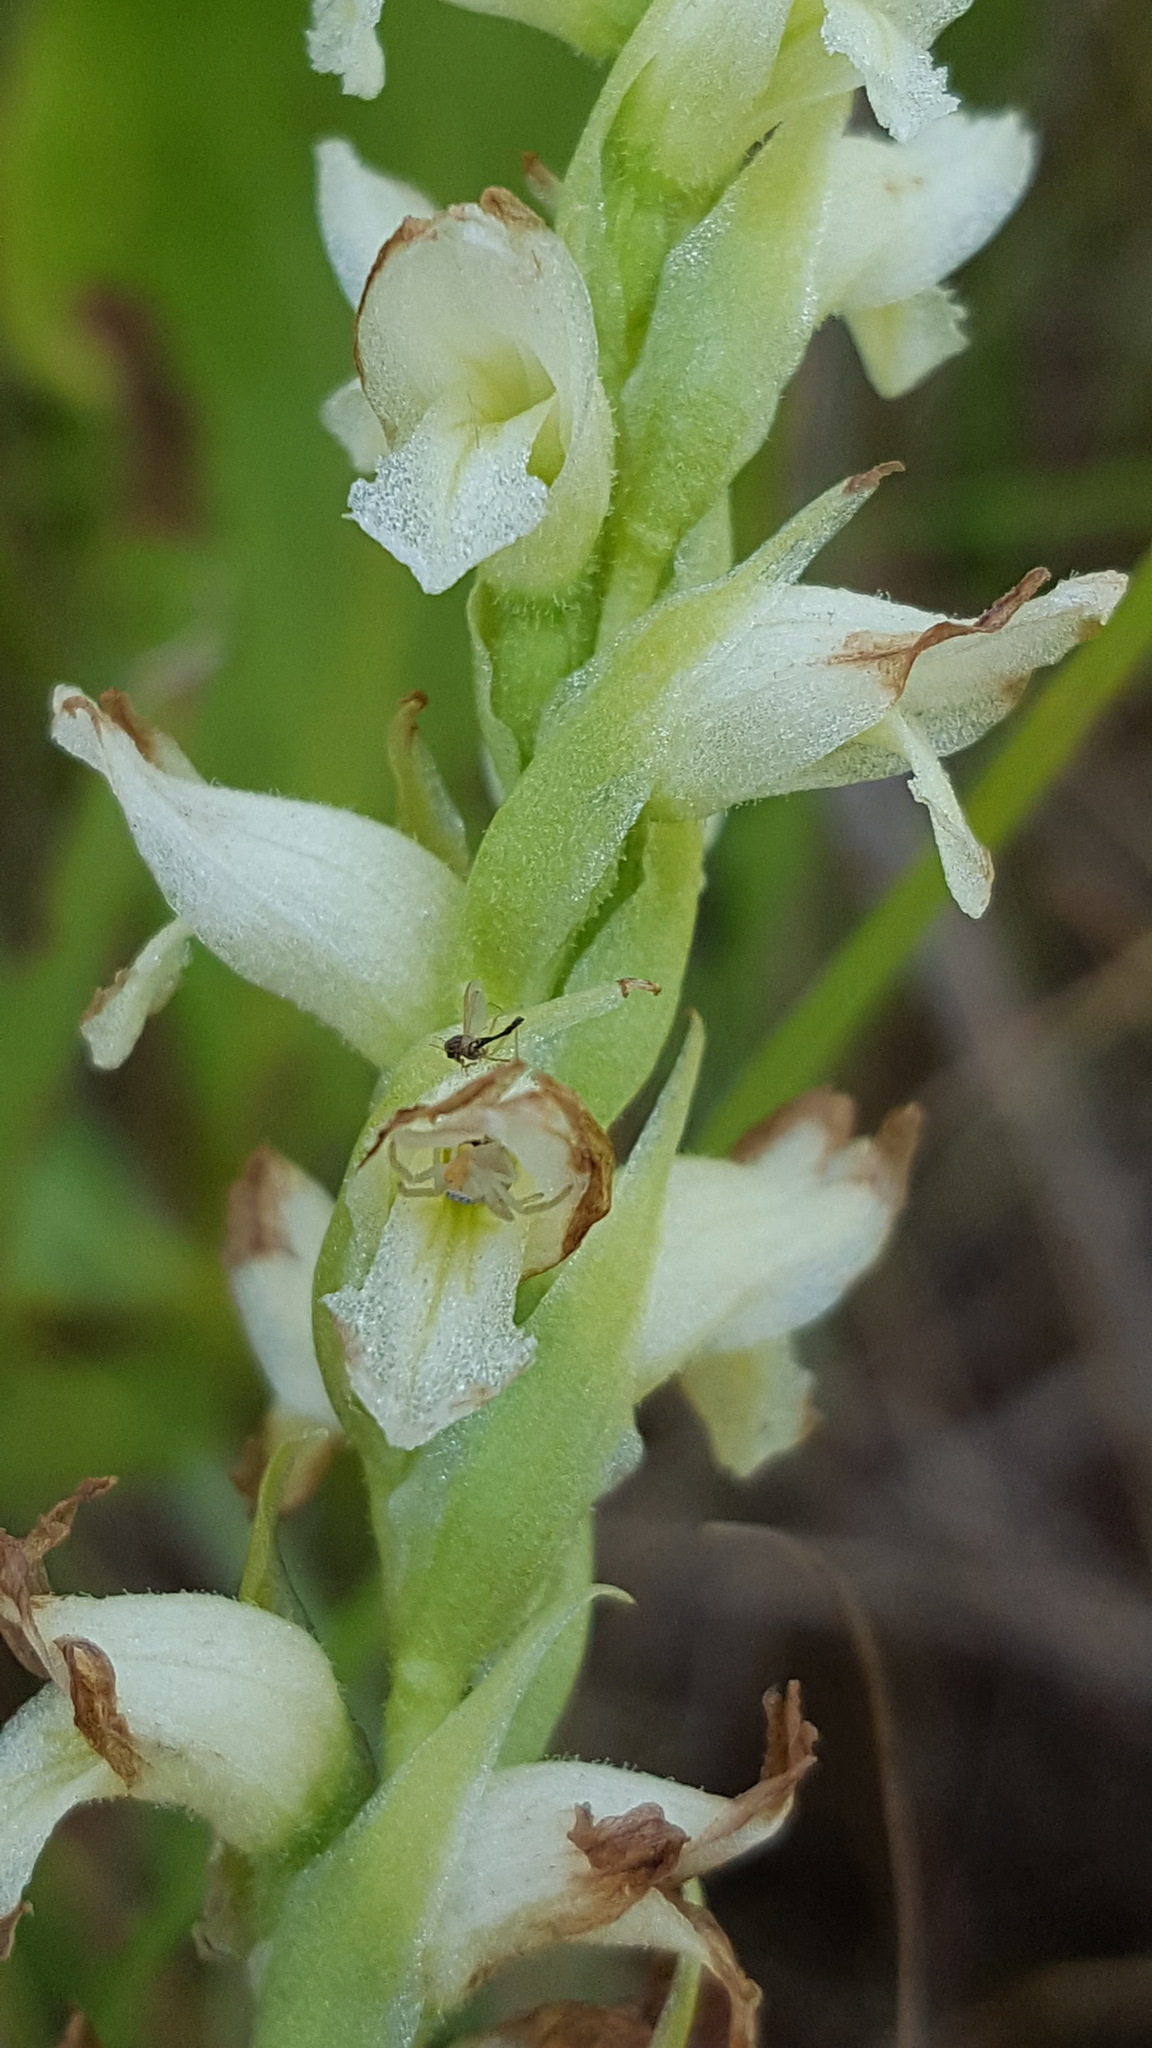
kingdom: Plantae
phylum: Tracheophyta
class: Liliopsida
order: Asparagales
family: Orchidaceae
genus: Spiranthes
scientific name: Spiranthes romanzoffiana
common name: Irish lady's-tresses
